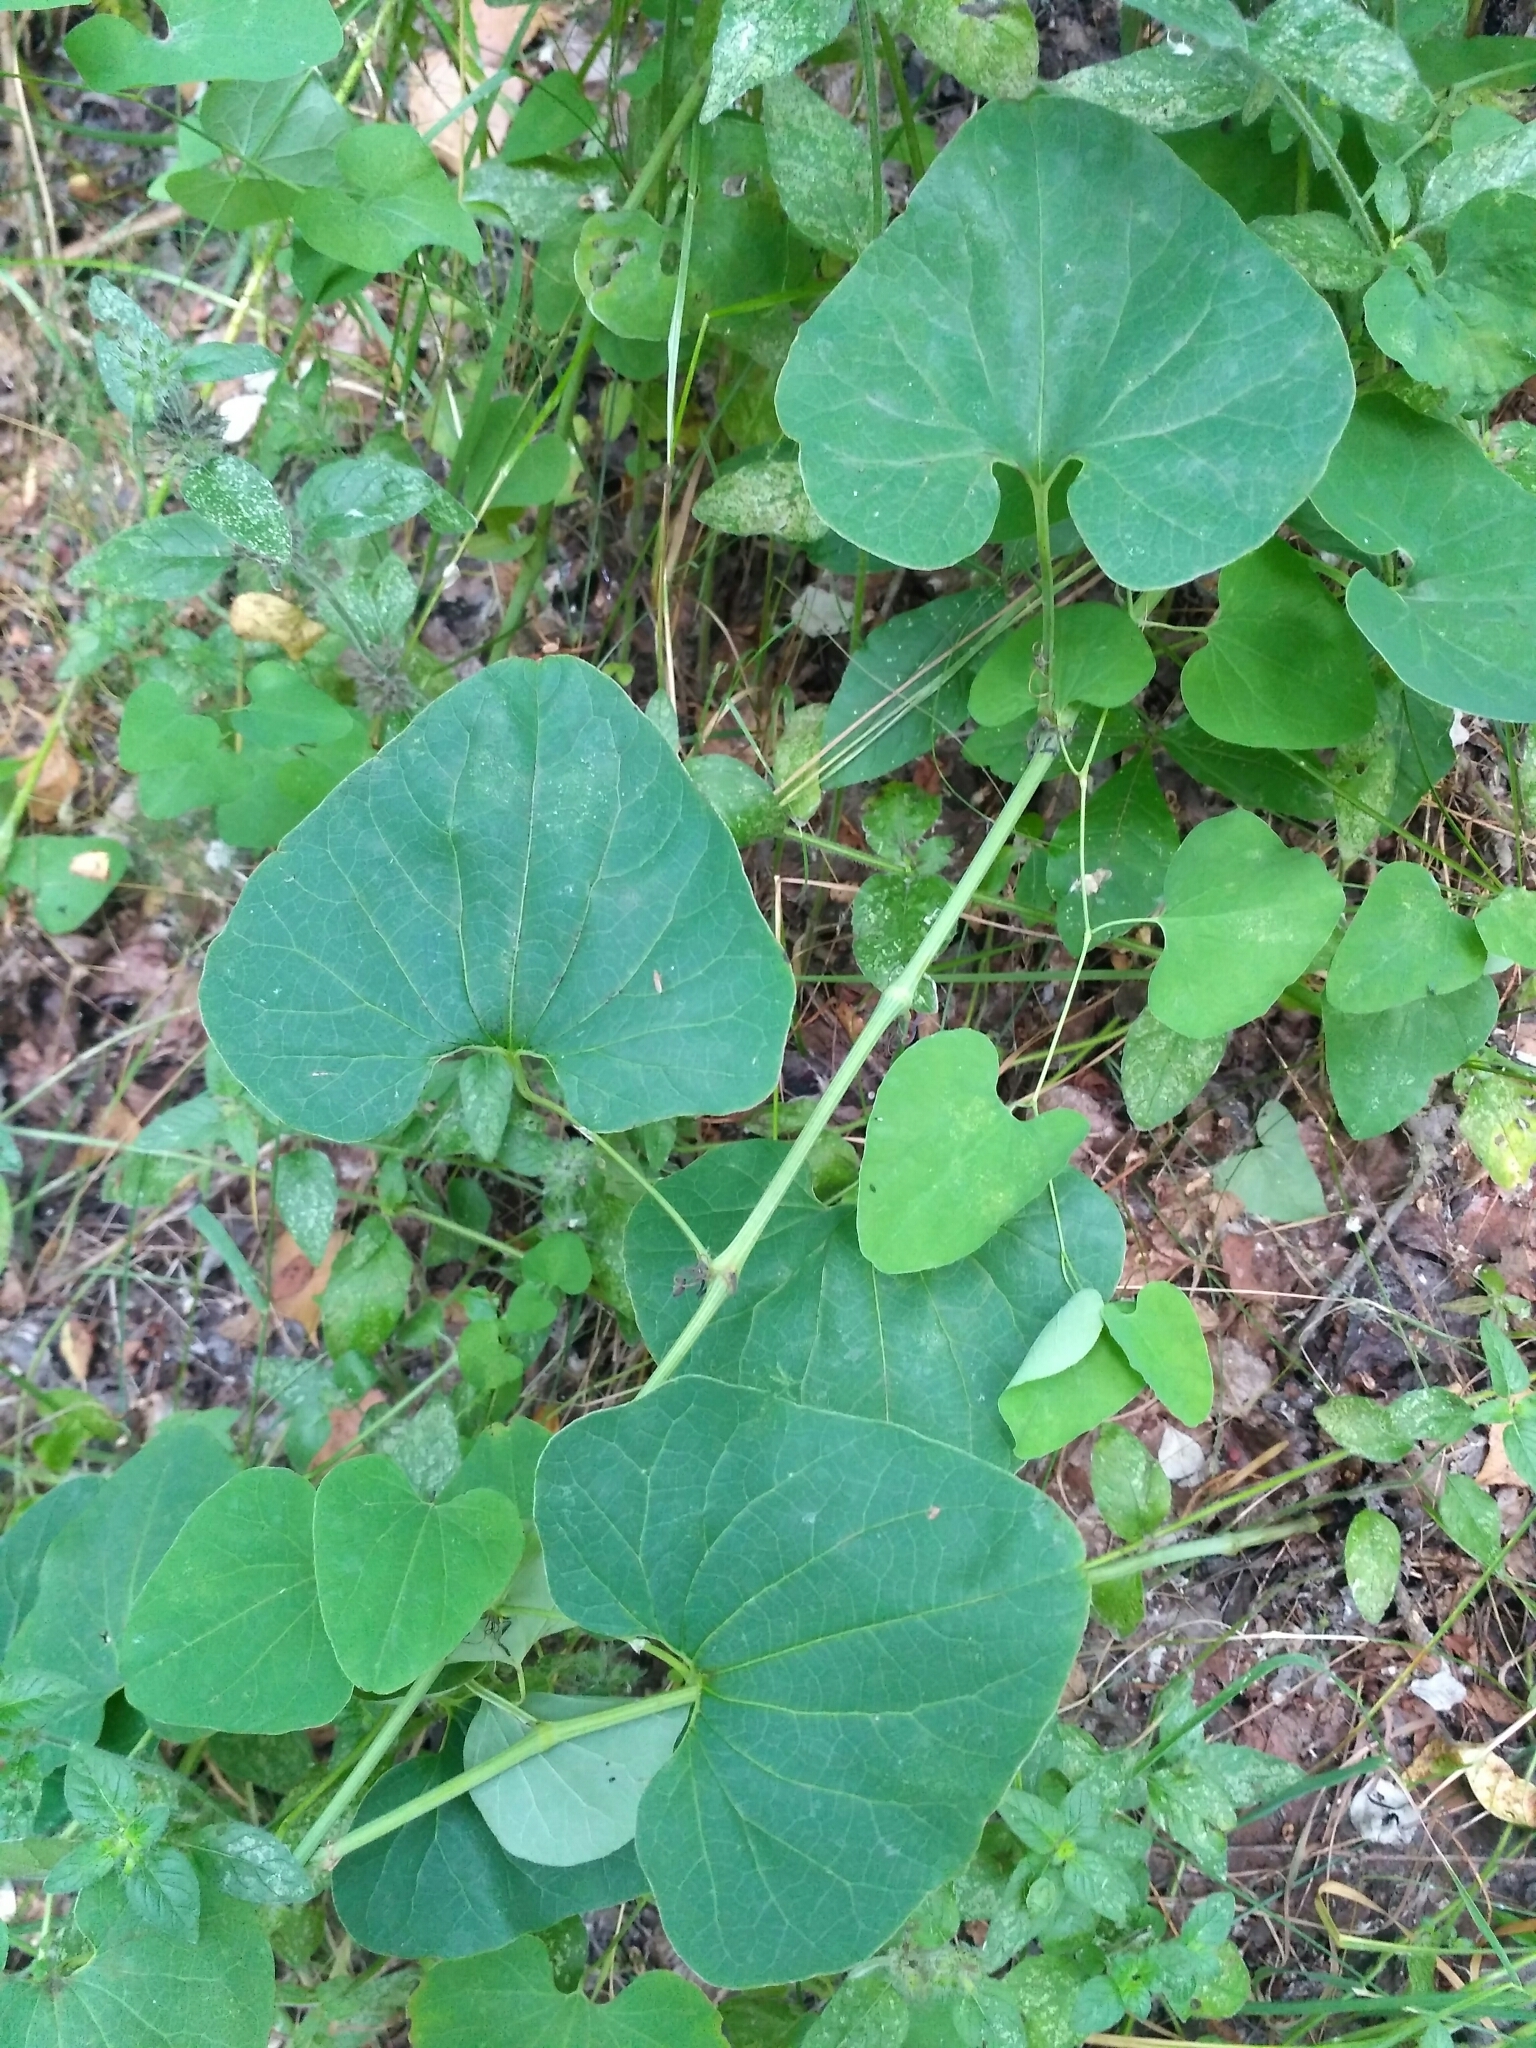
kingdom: Plantae
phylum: Tracheophyta
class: Magnoliopsida
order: Piperales
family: Aristolochiaceae
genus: Aristolochia
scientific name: Aristolochia clematitis
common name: Birthwort
